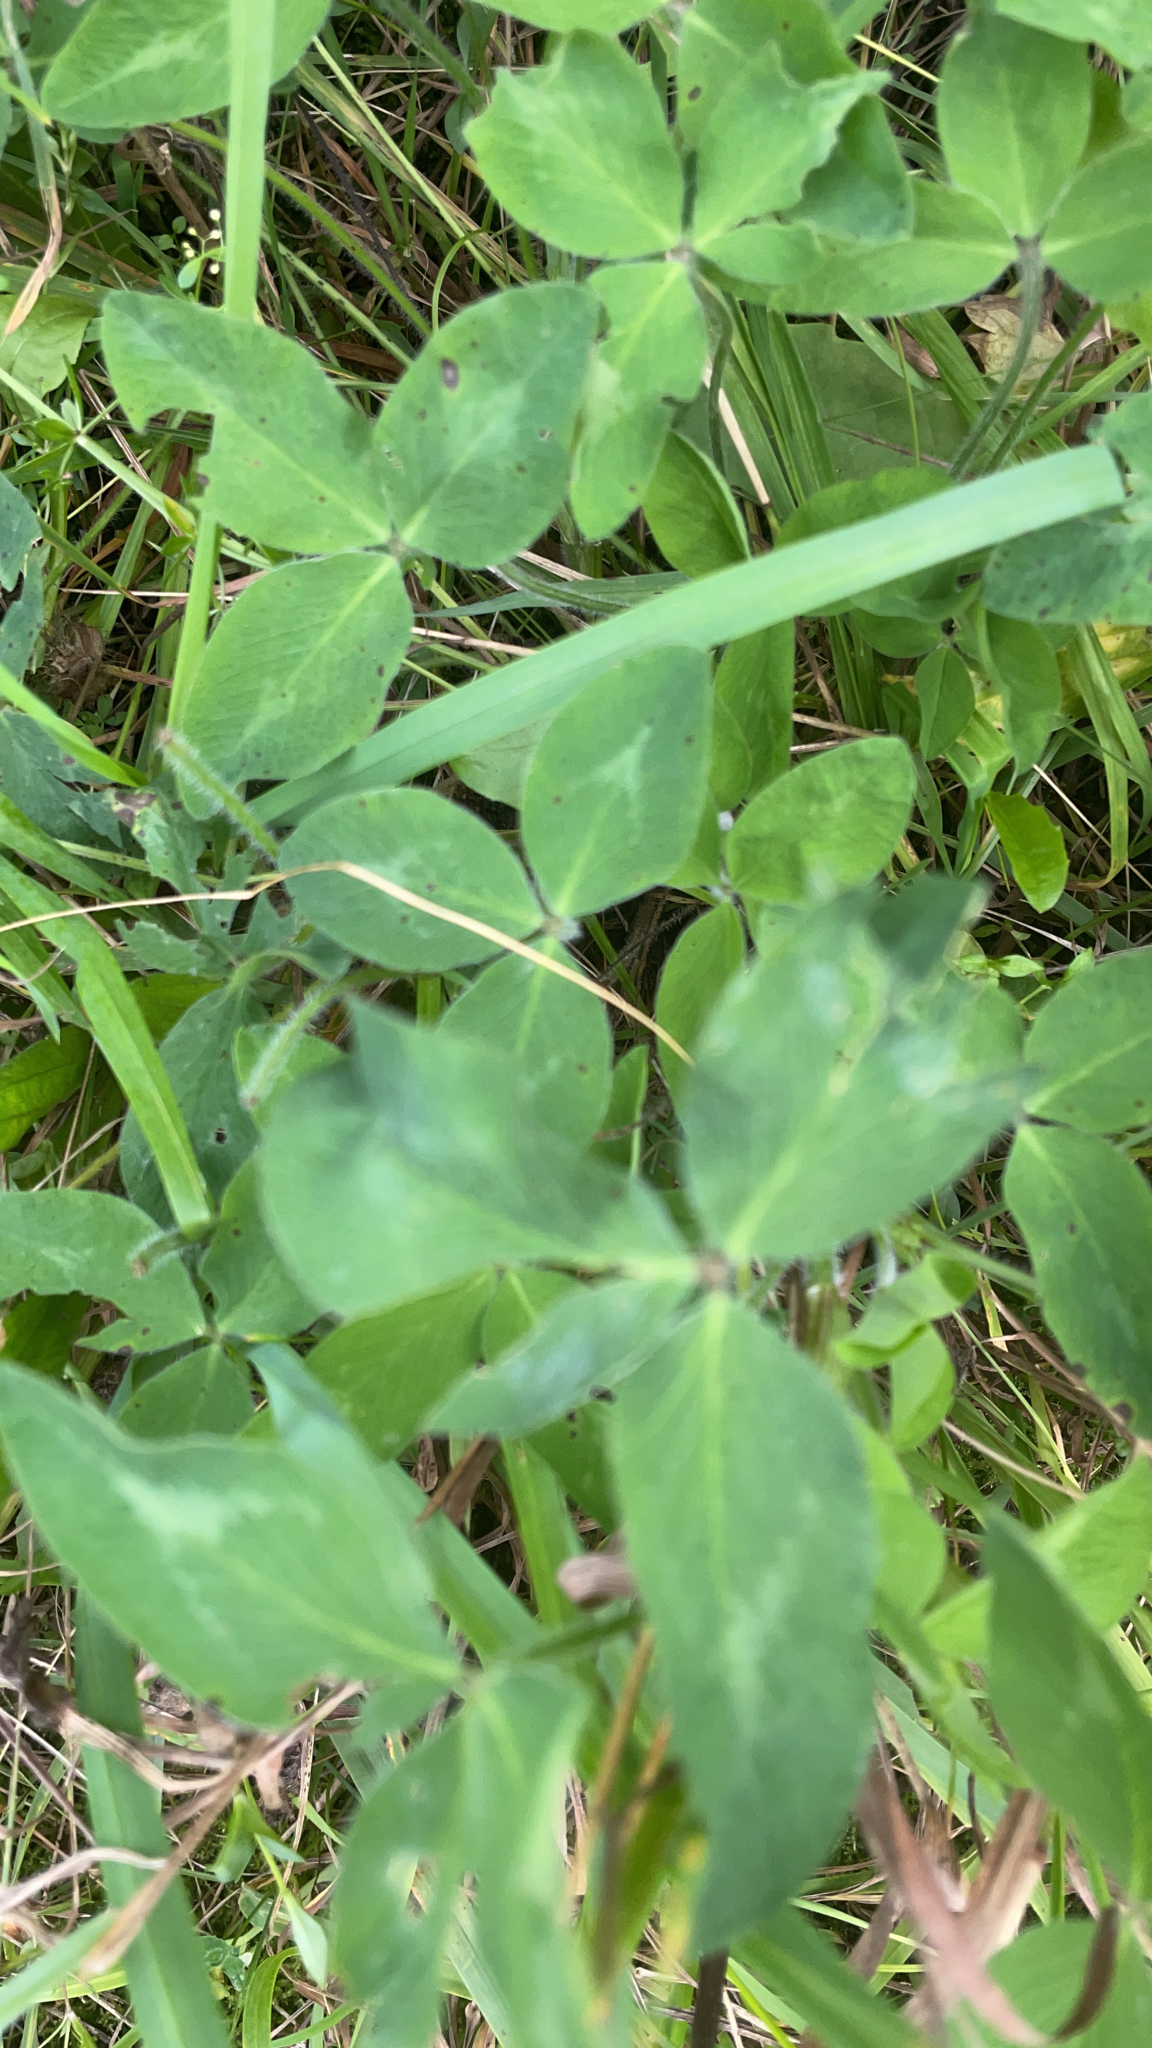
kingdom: Plantae
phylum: Tracheophyta
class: Magnoliopsida
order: Fabales
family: Fabaceae
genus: Trifolium
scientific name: Trifolium pratense
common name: Red clover
